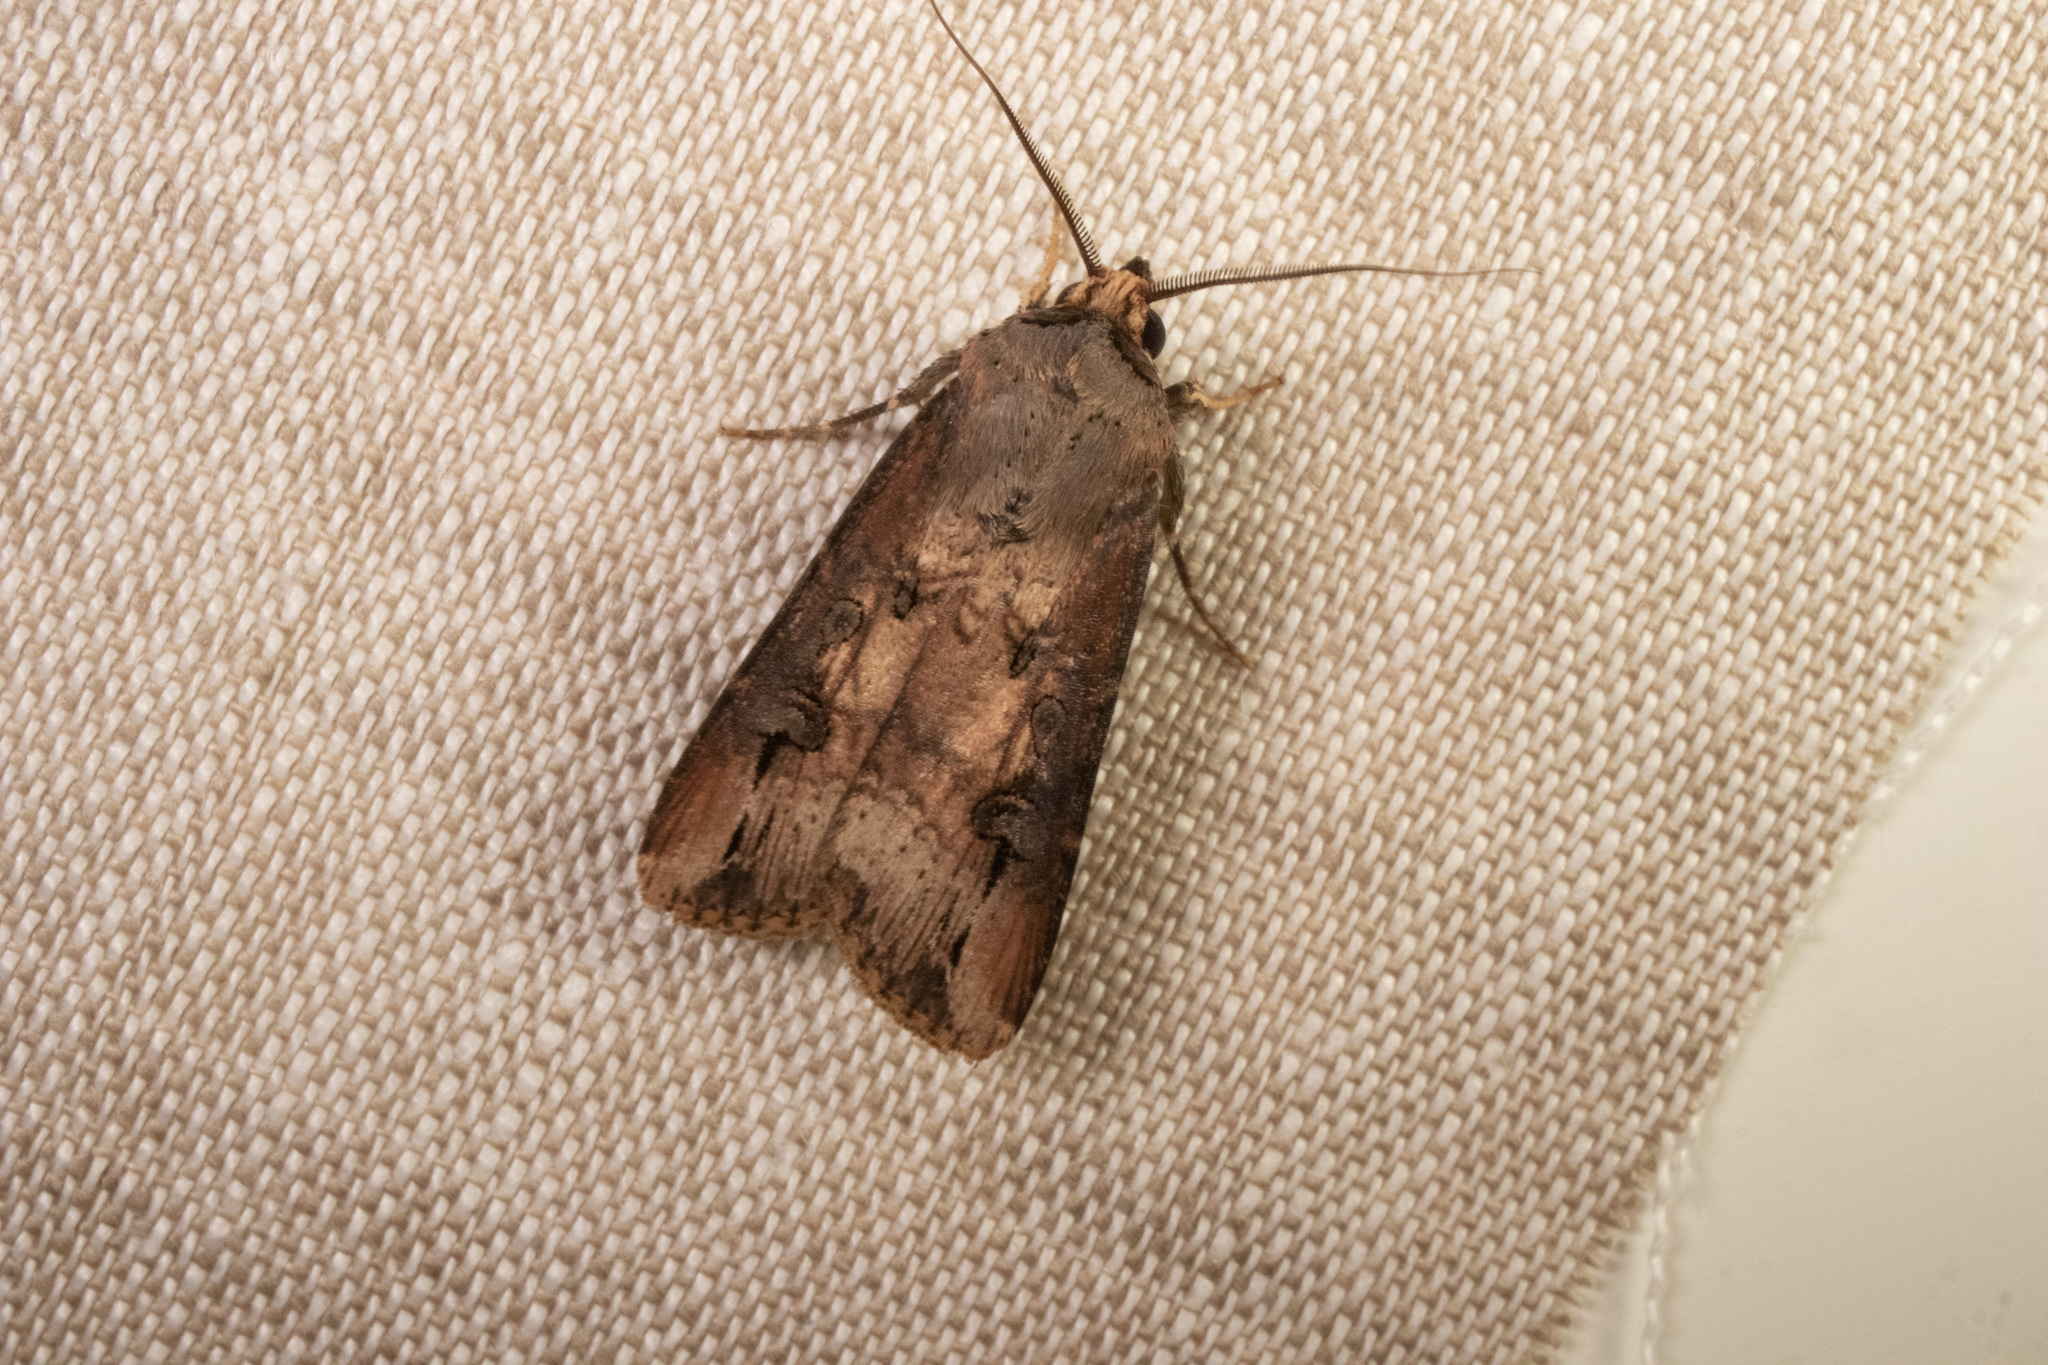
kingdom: Animalia
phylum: Arthropoda
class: Insecta
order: Lepidoptera
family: Noctuidae
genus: Agrotis
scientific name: Agrotis ipsilon
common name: Dark sword-grass
